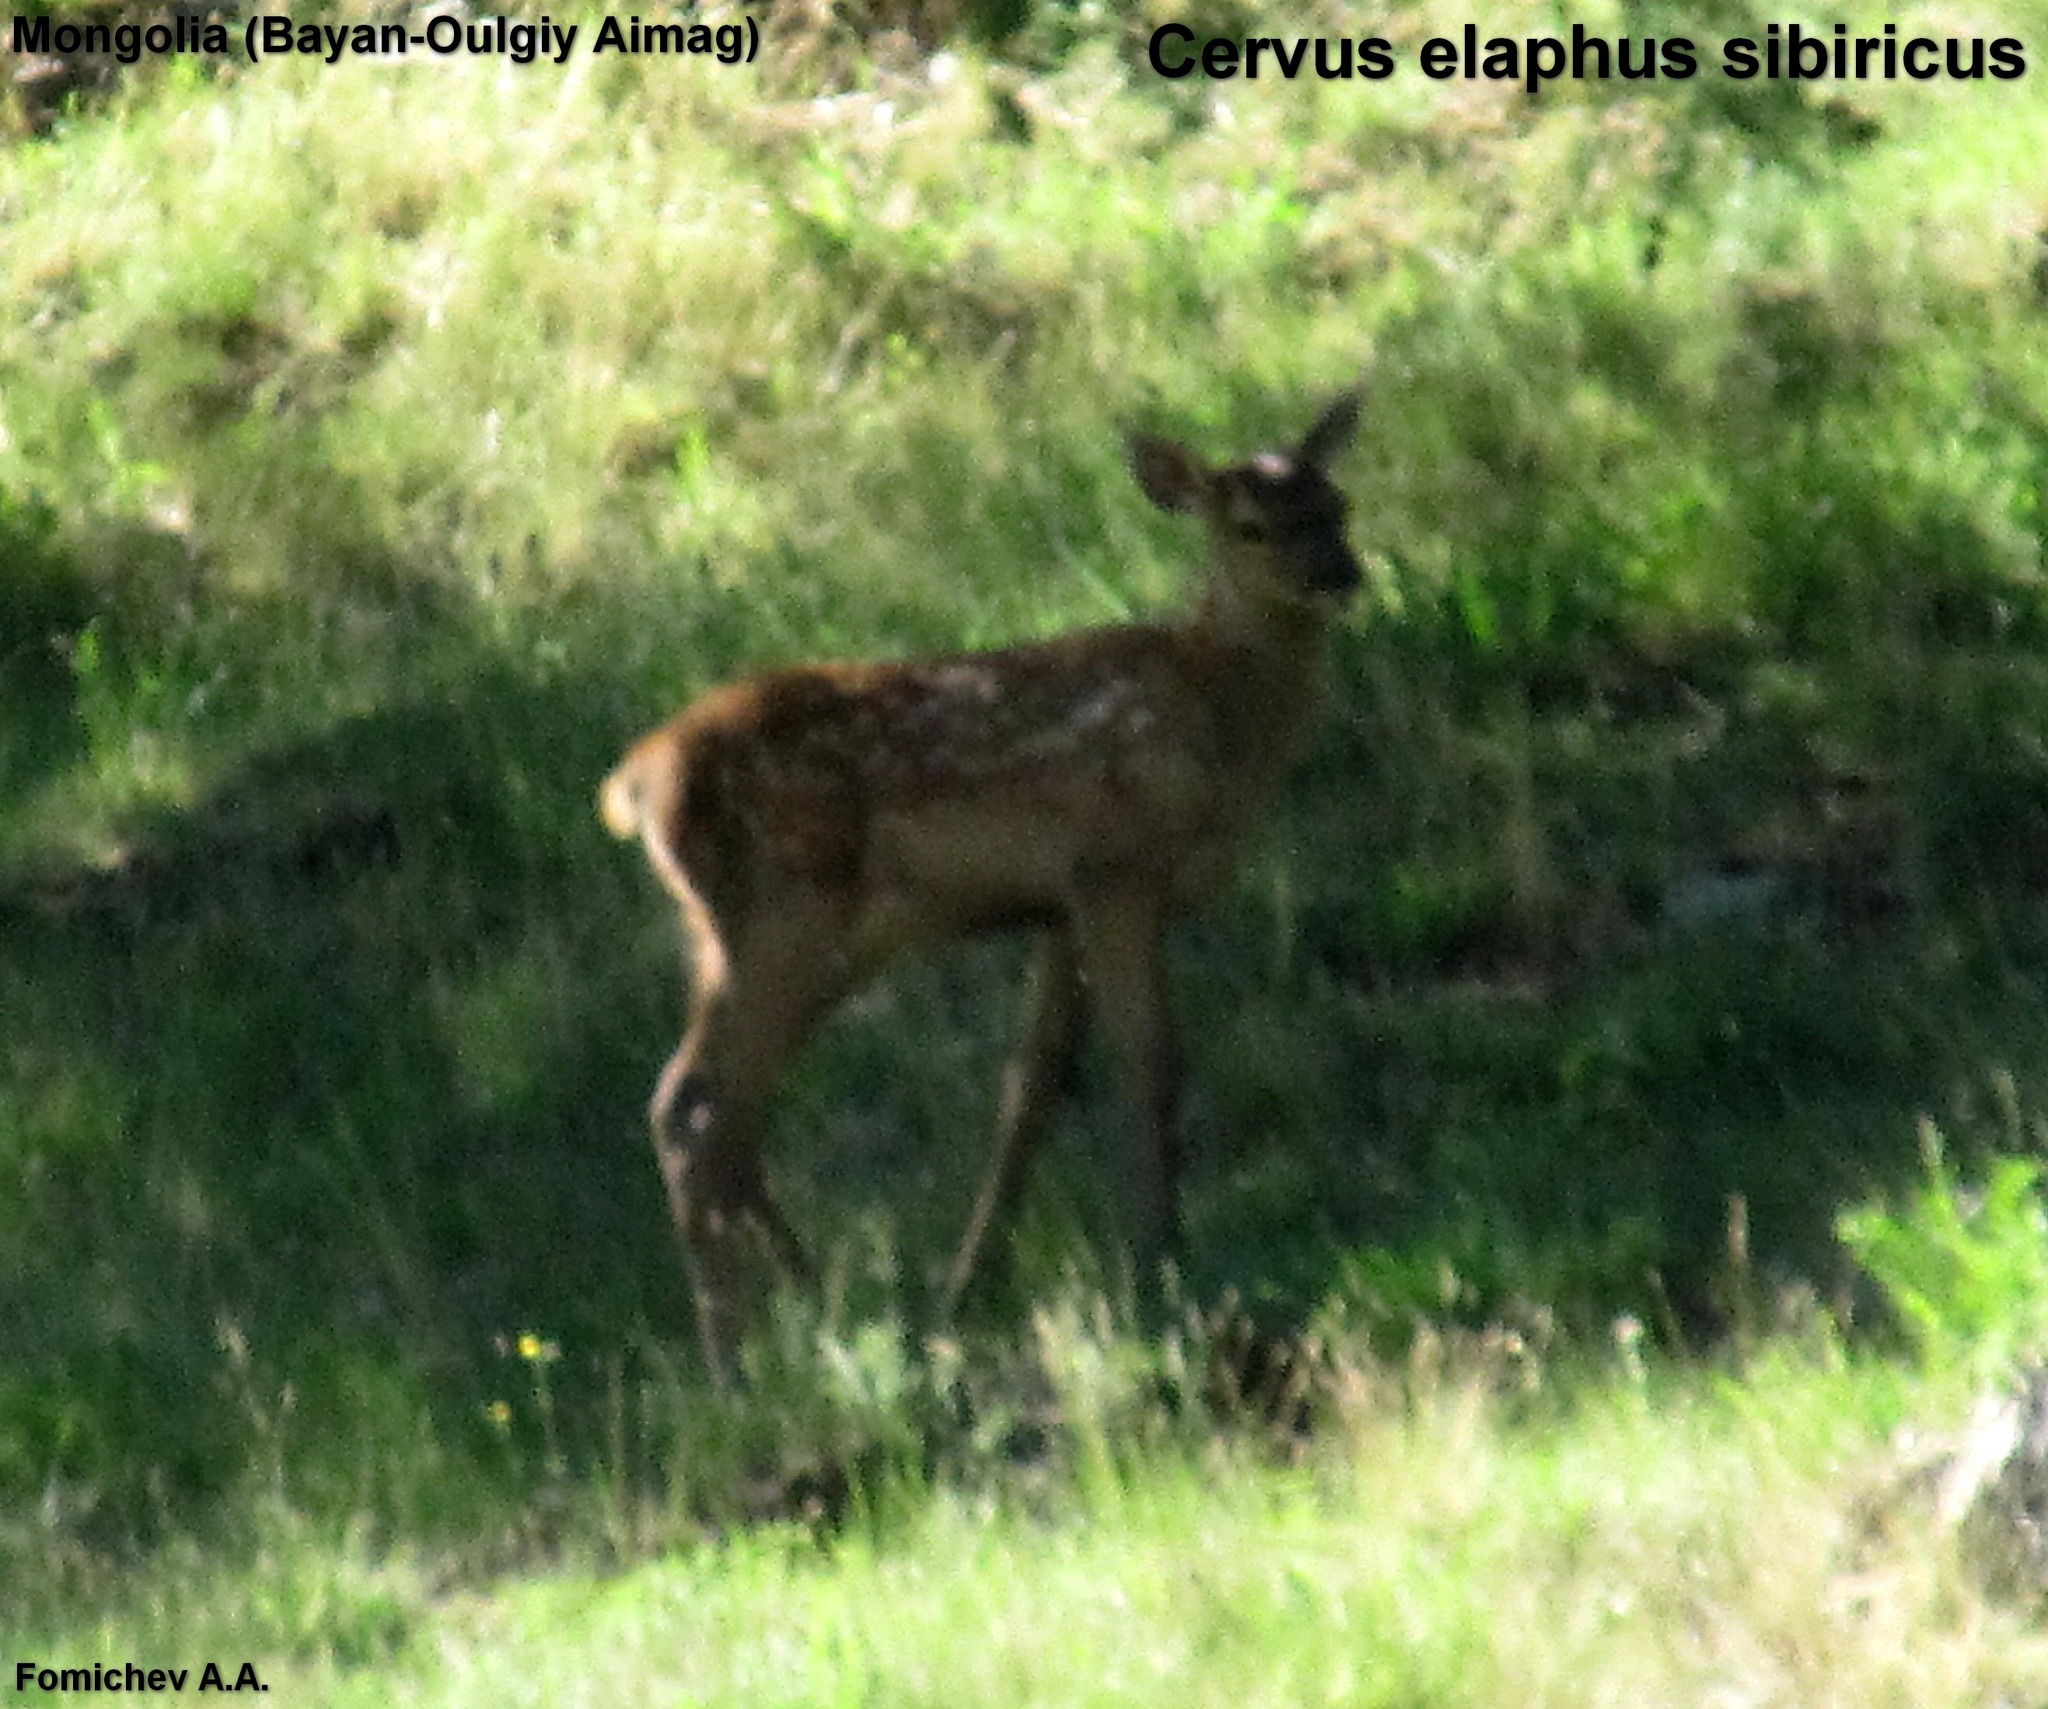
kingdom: Animalia
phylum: Chordata
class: Mammalia
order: Artiodactyla
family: Cervidae
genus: Cervus
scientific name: Cervus elaphus
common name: Red deer
